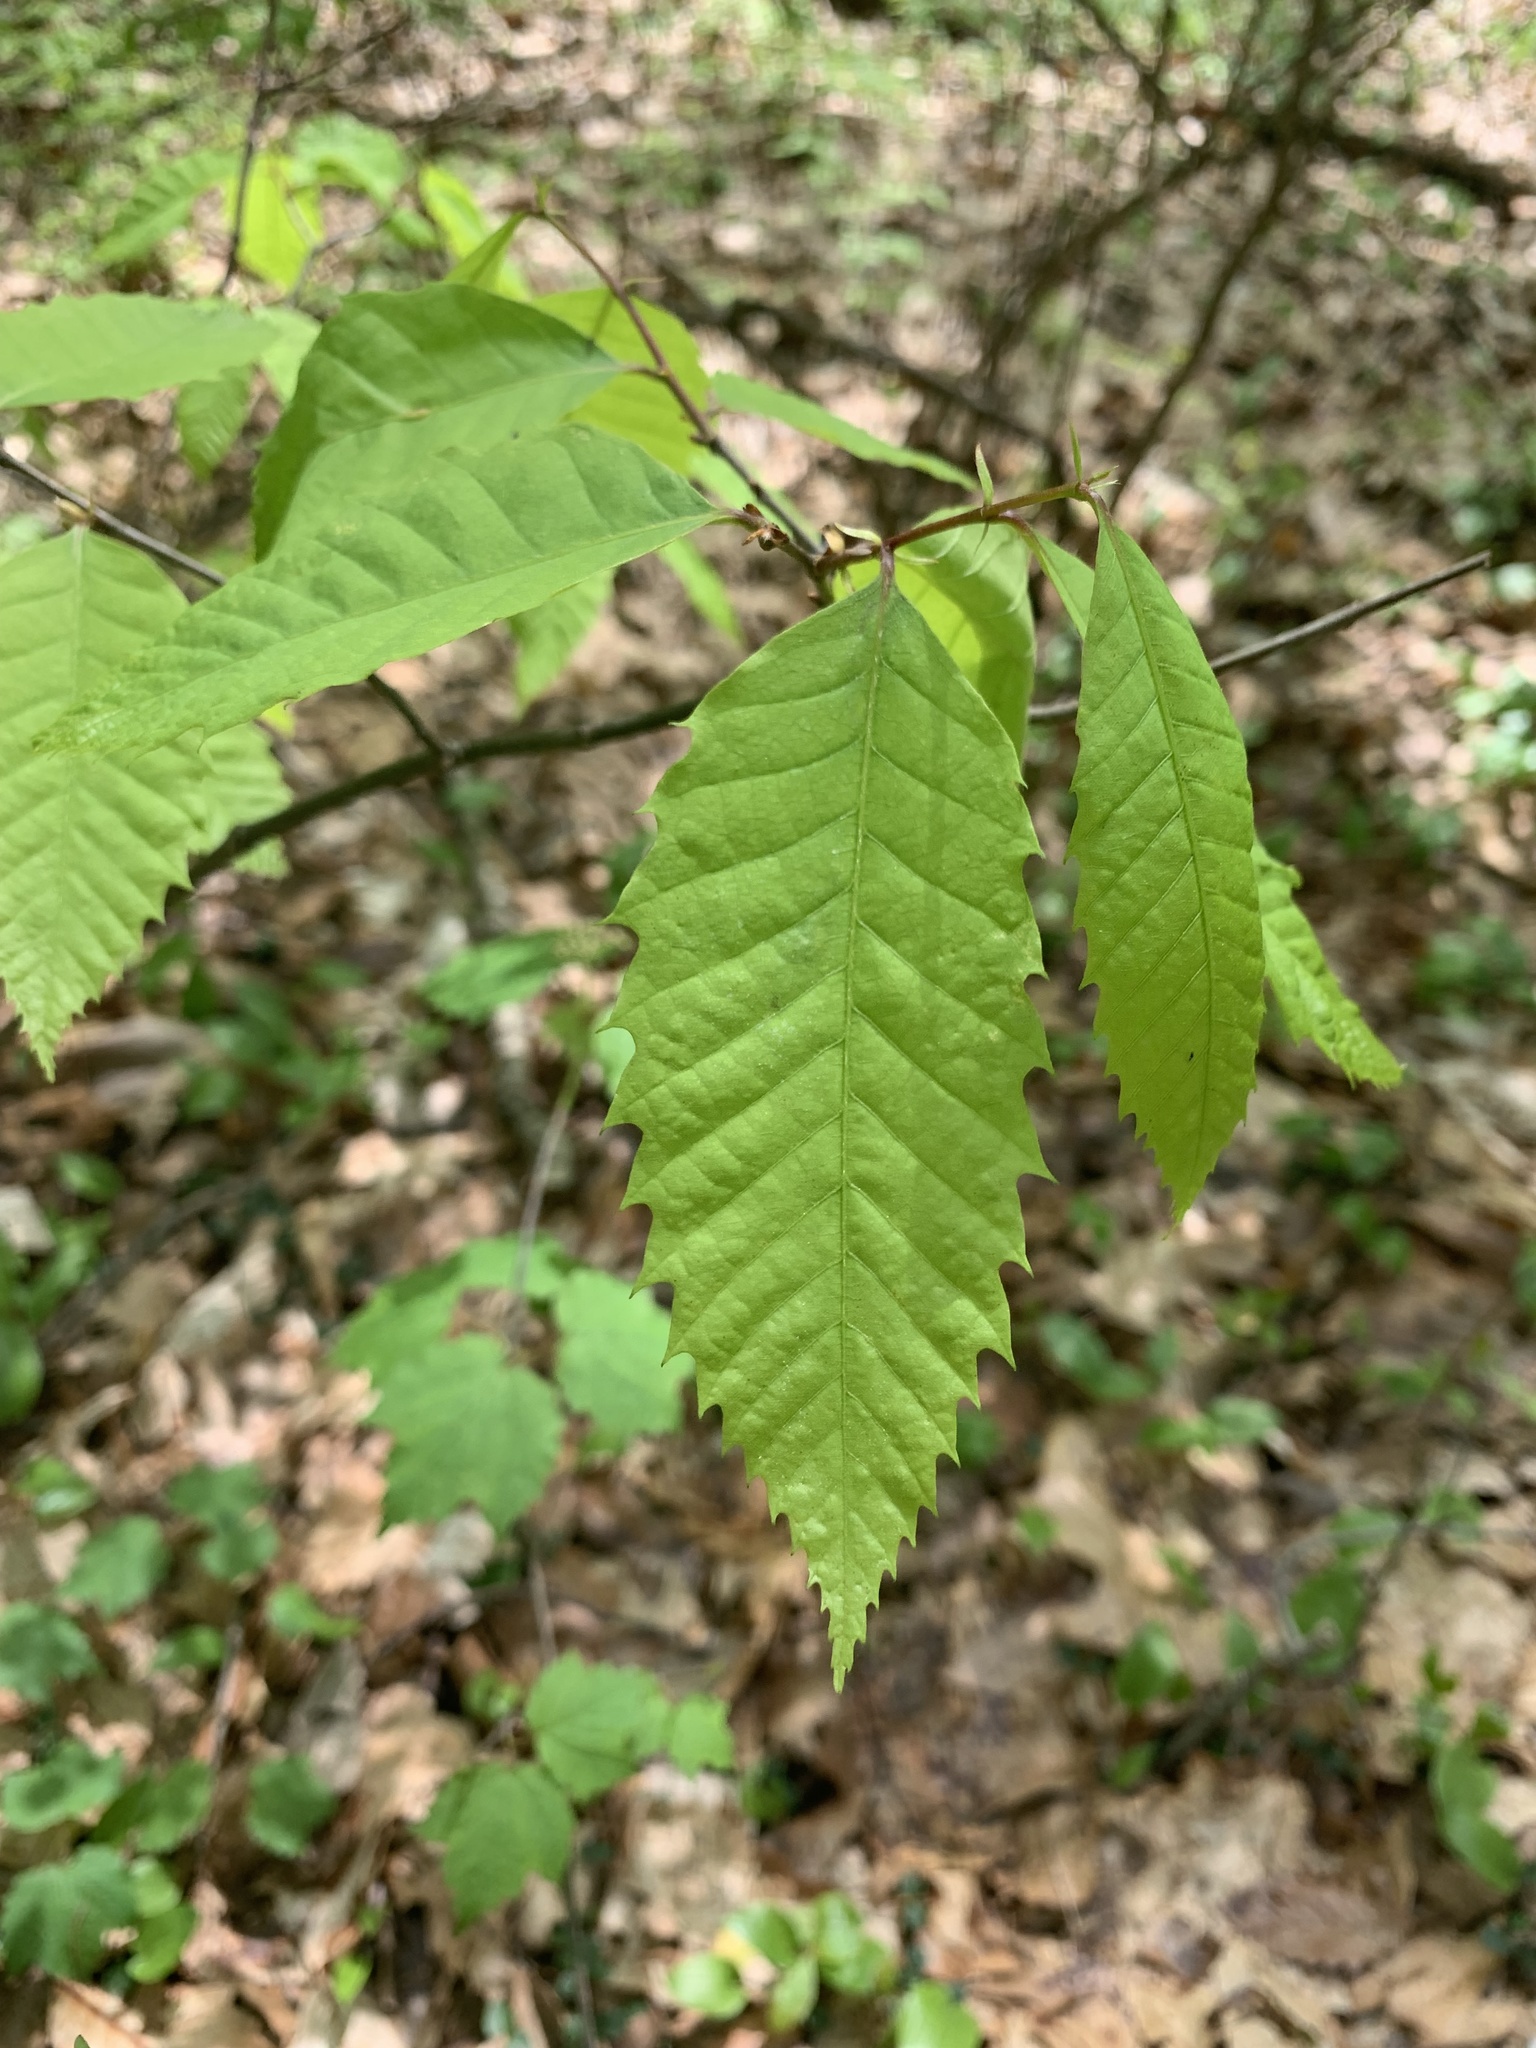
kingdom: Plantae
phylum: Tracheophyta
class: Magnoliopsida
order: Fagales
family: Fagaceae
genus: Castanea
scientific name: Castanea dentata
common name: American chestnut
